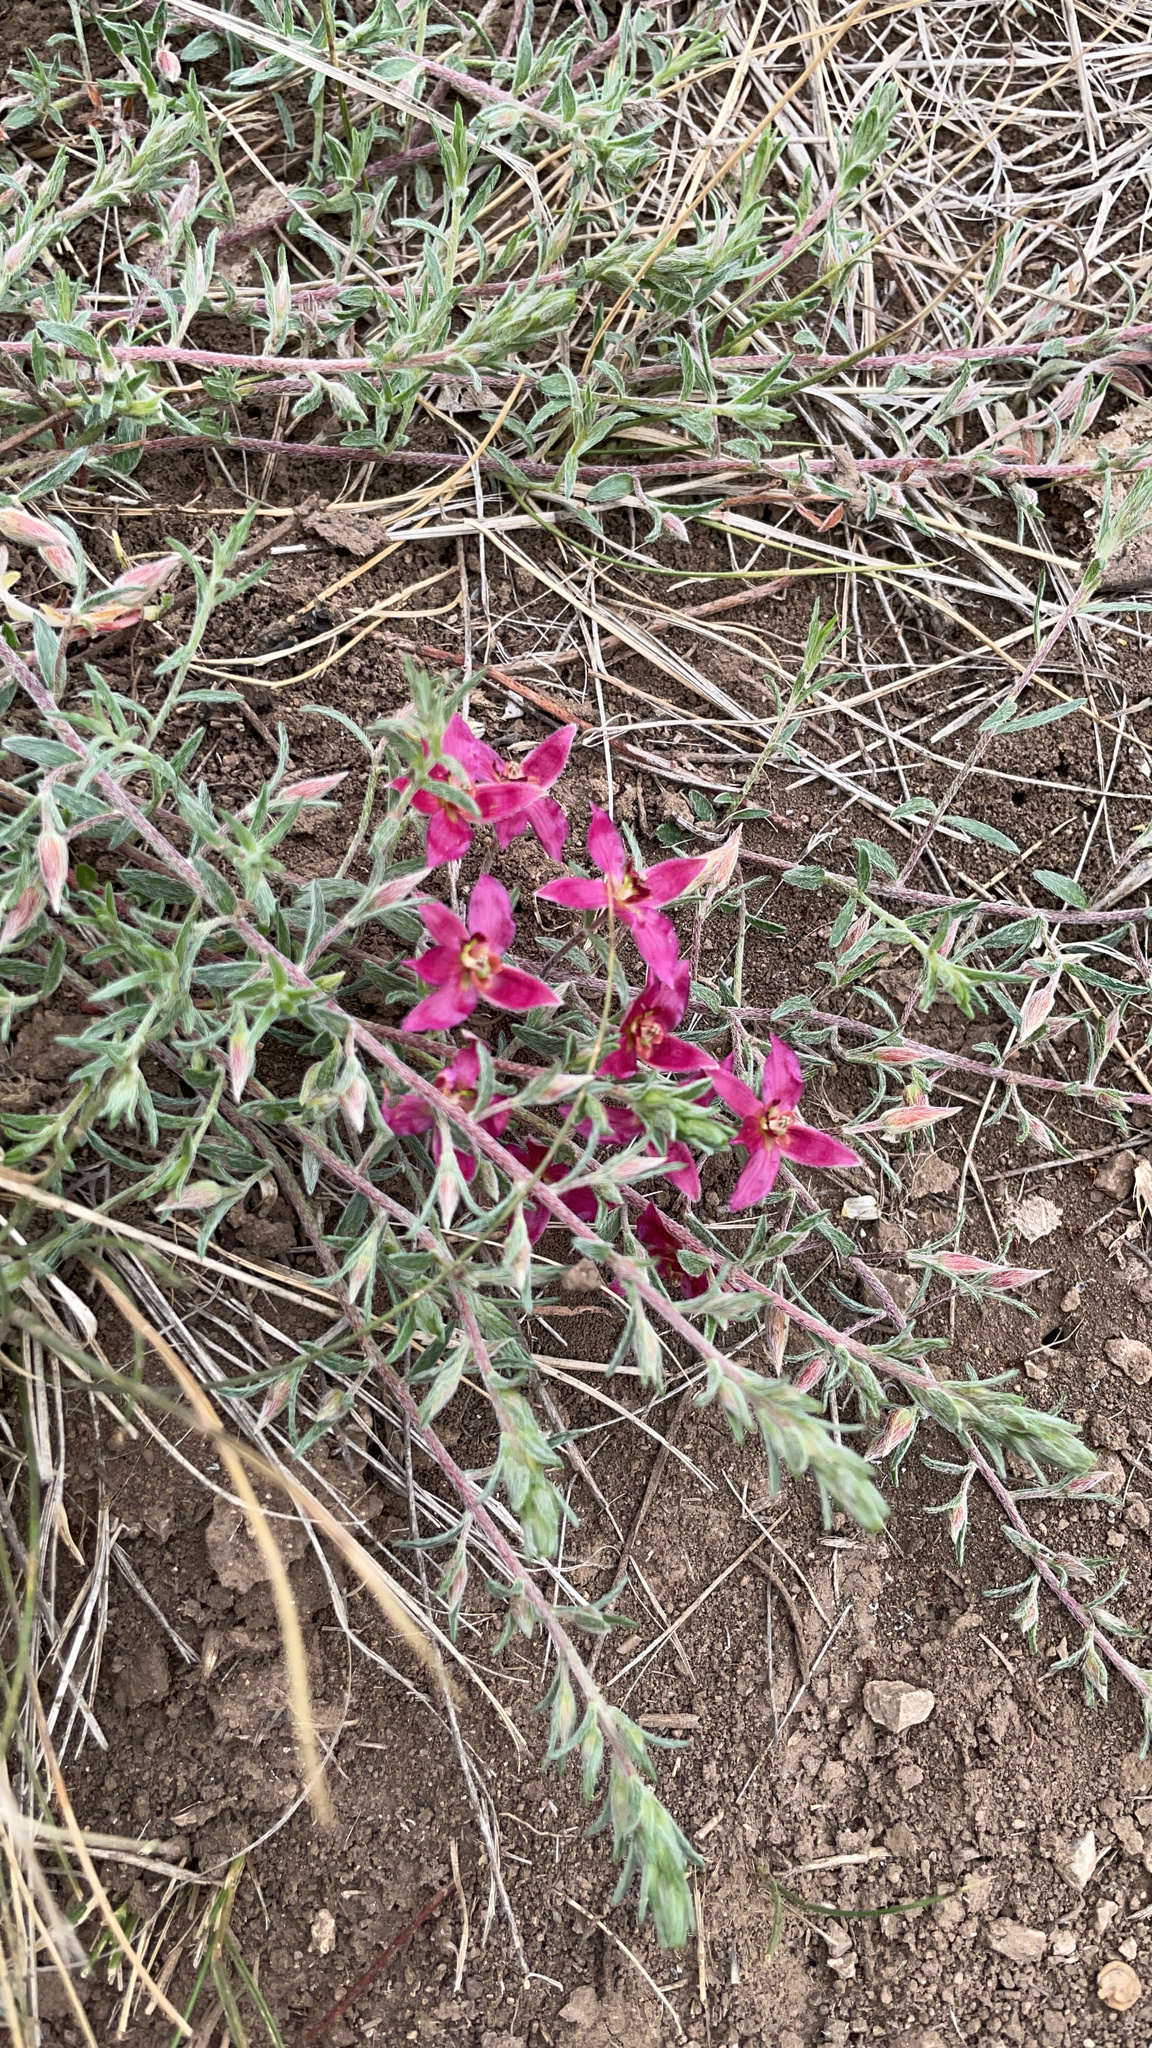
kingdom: Plantae
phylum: Tracheophyta
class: Magnoliopsida
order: Zygophyllales
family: Krameriaceae
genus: Krameria
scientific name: Krameria lanceolata
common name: Ratany
